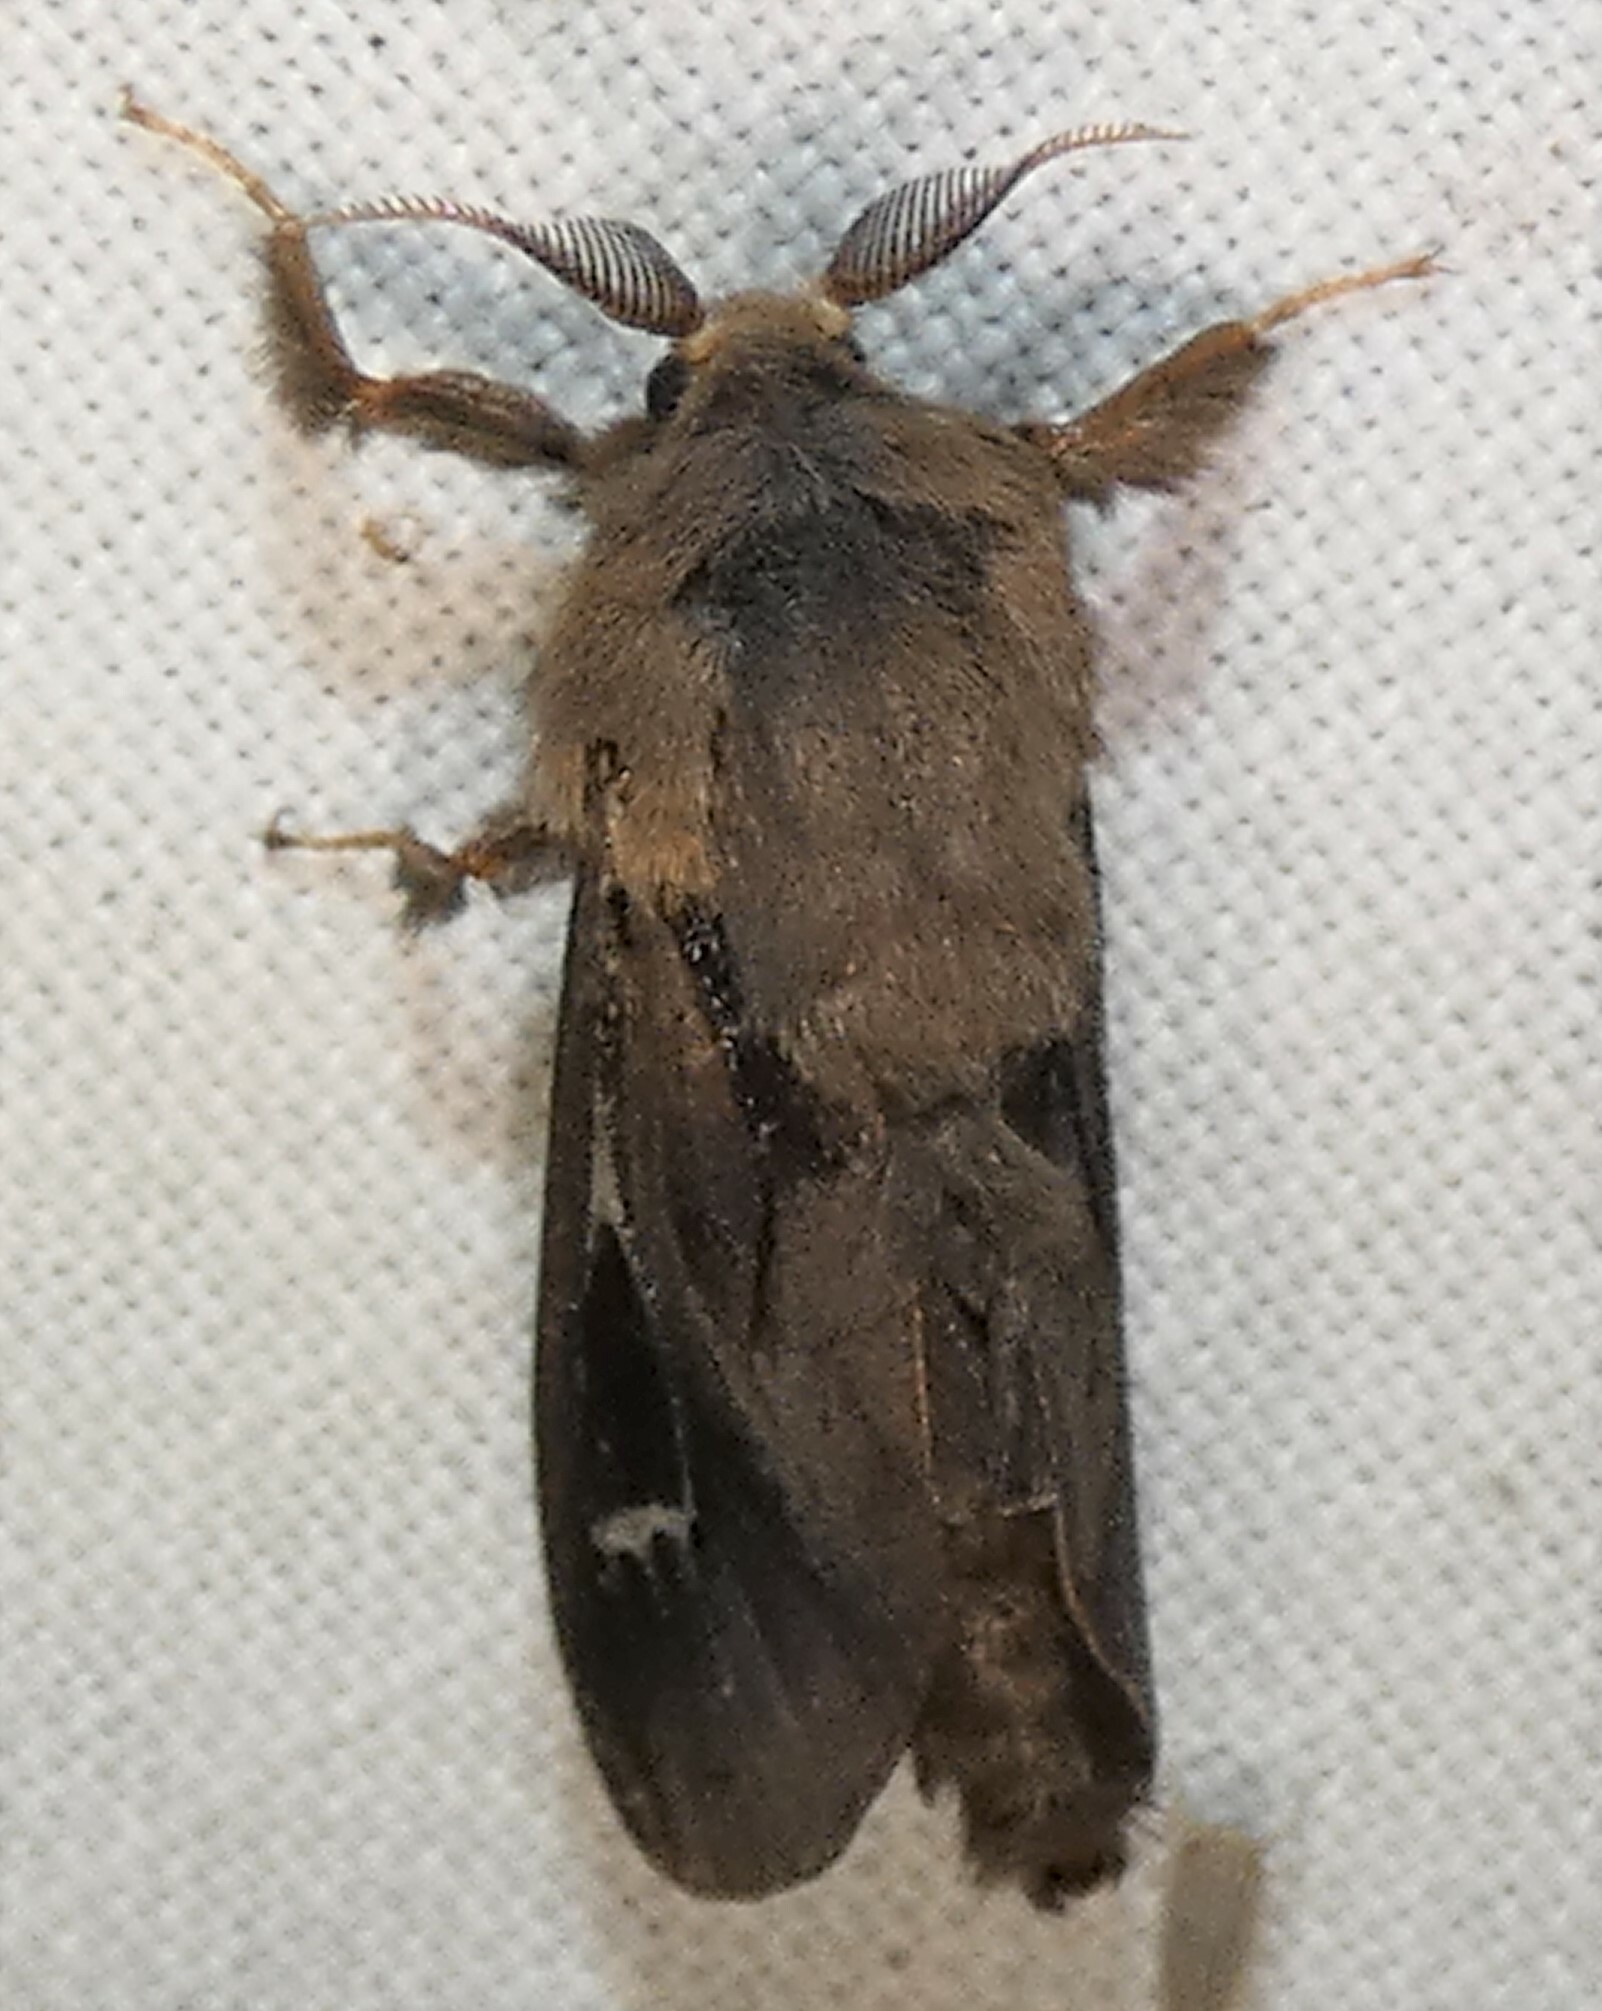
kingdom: Animalia
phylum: Arthropoda
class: Insecta
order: Lepidoptera
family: Psychidae
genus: Oiketicus
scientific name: Oiketicus
